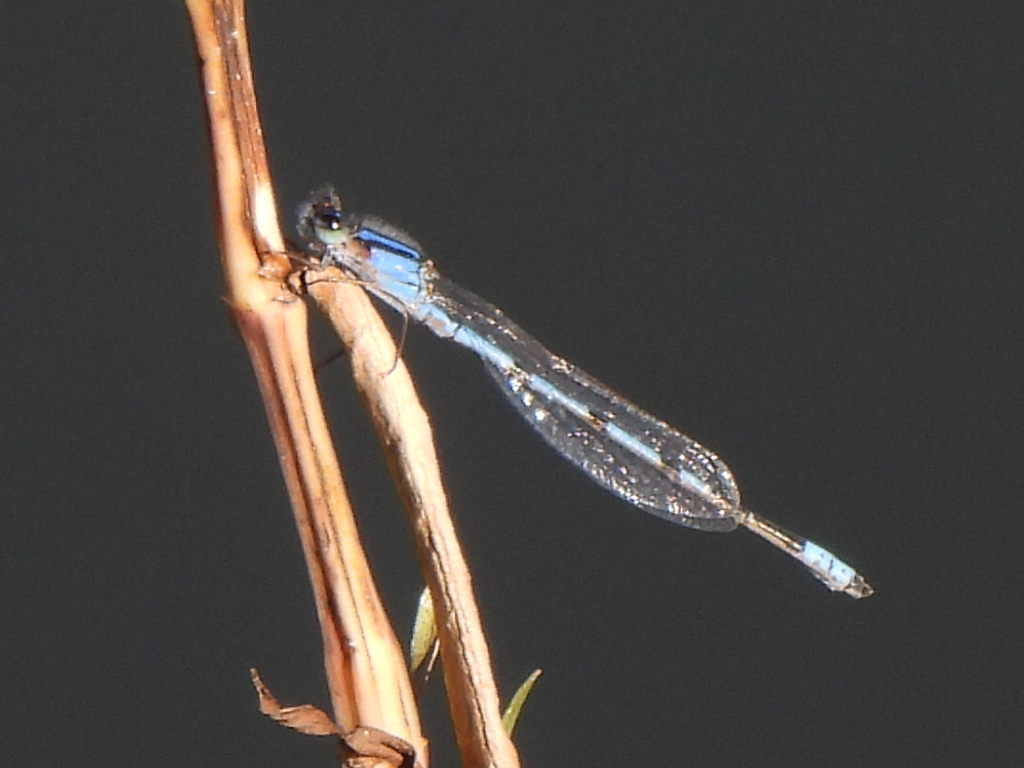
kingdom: Animalia
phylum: Arthropoda
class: Insecta
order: Odonata
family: Coenagrionidae
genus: Enallagma
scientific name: Enallagma civile
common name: Damselfly
